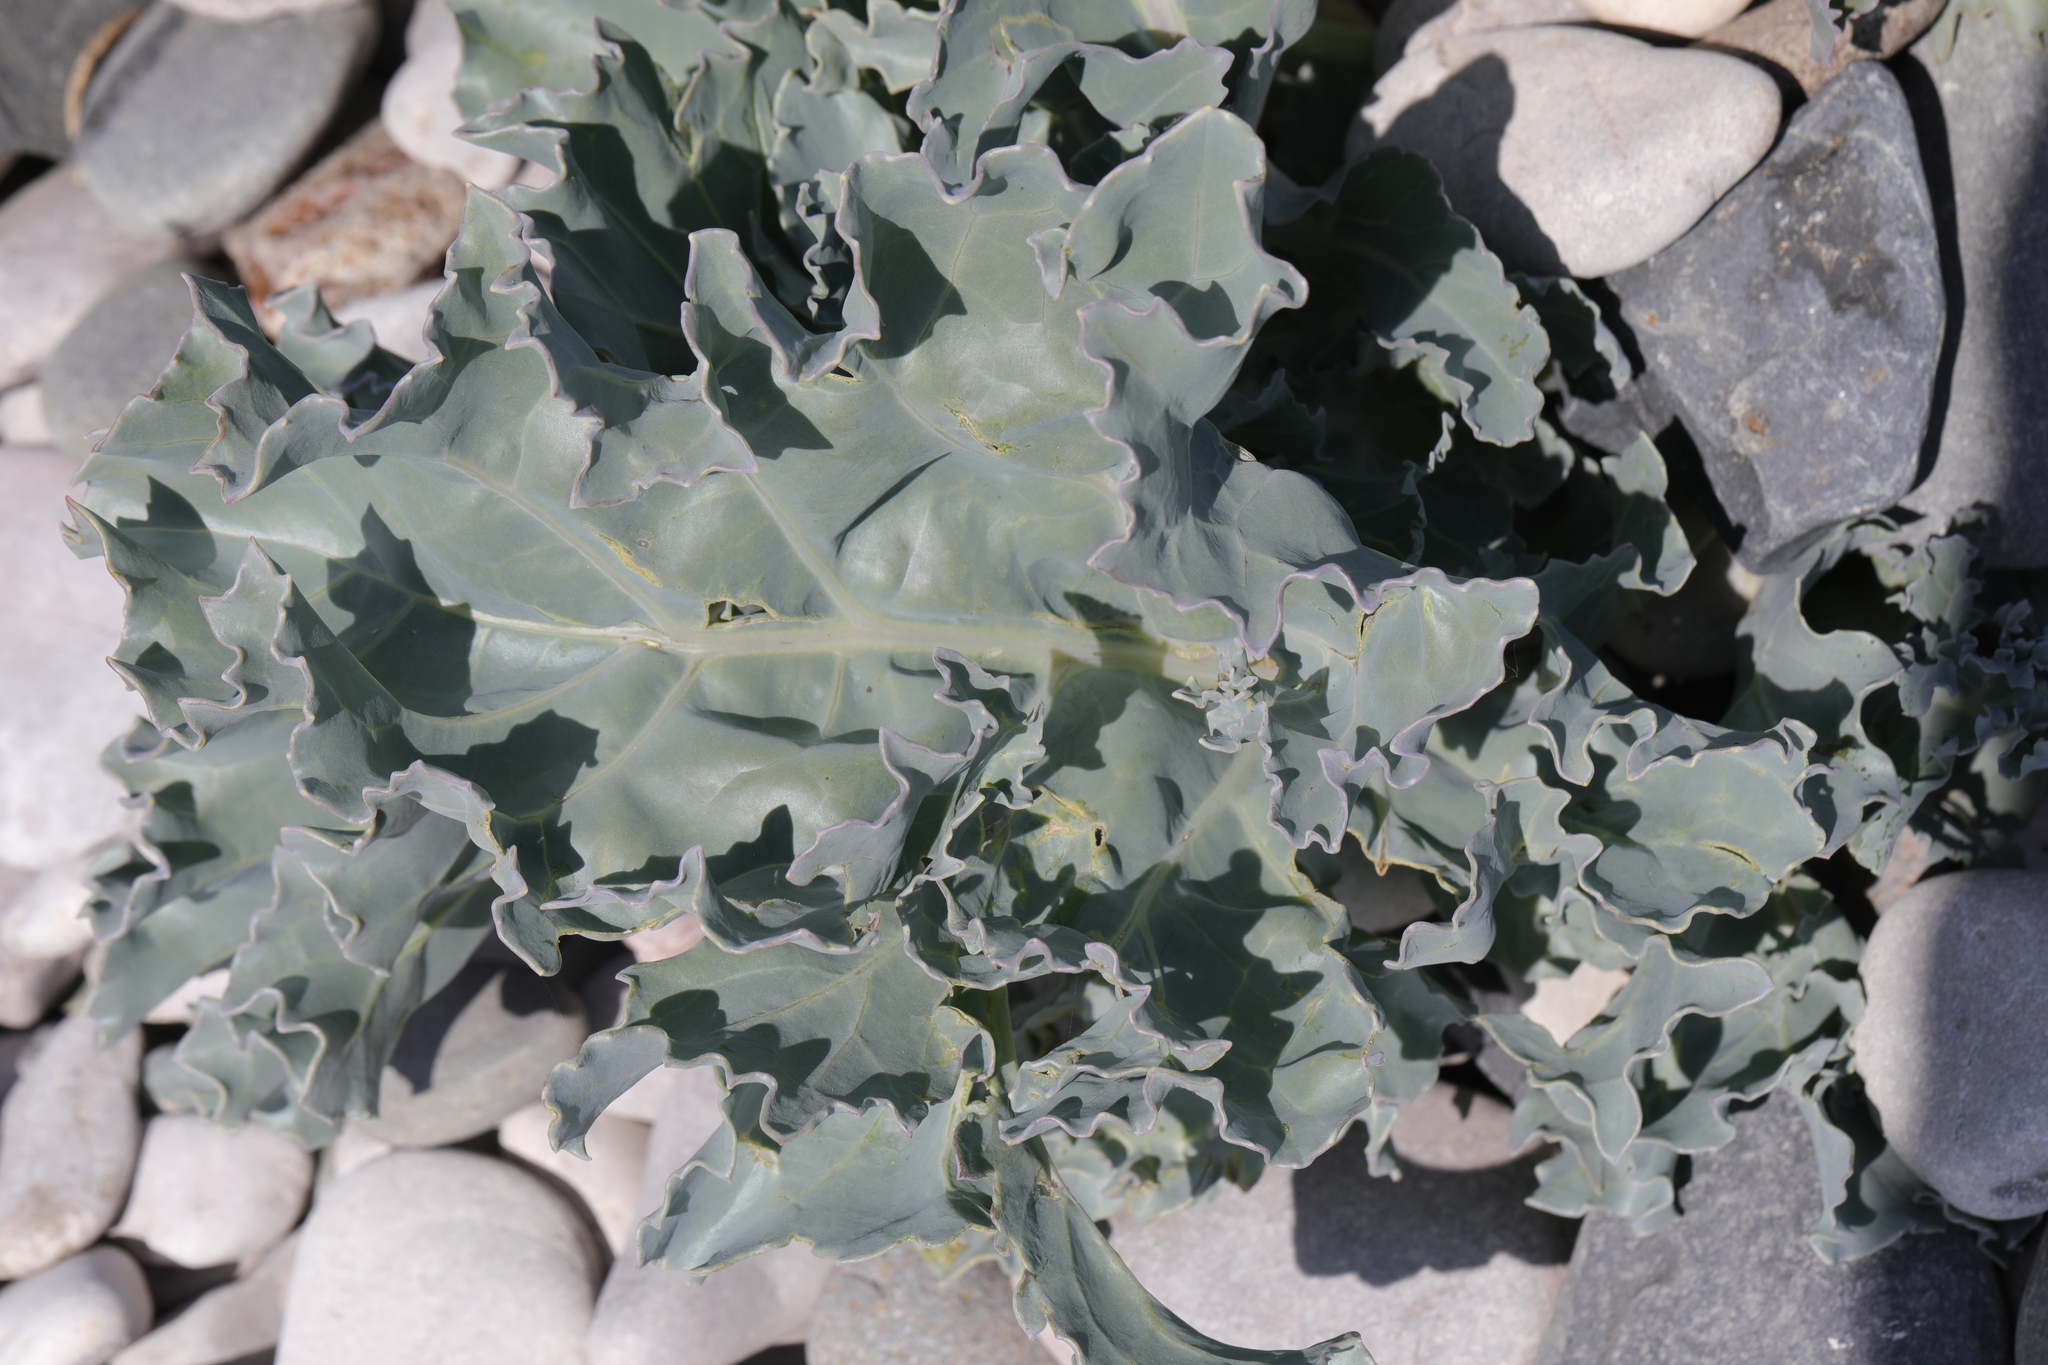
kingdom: Plantae
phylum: Tracheophyta
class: Magnoliopsida
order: Brassicales
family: Brassicaceae
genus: Crambe
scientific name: Crambe maritima
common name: Sea-kale
